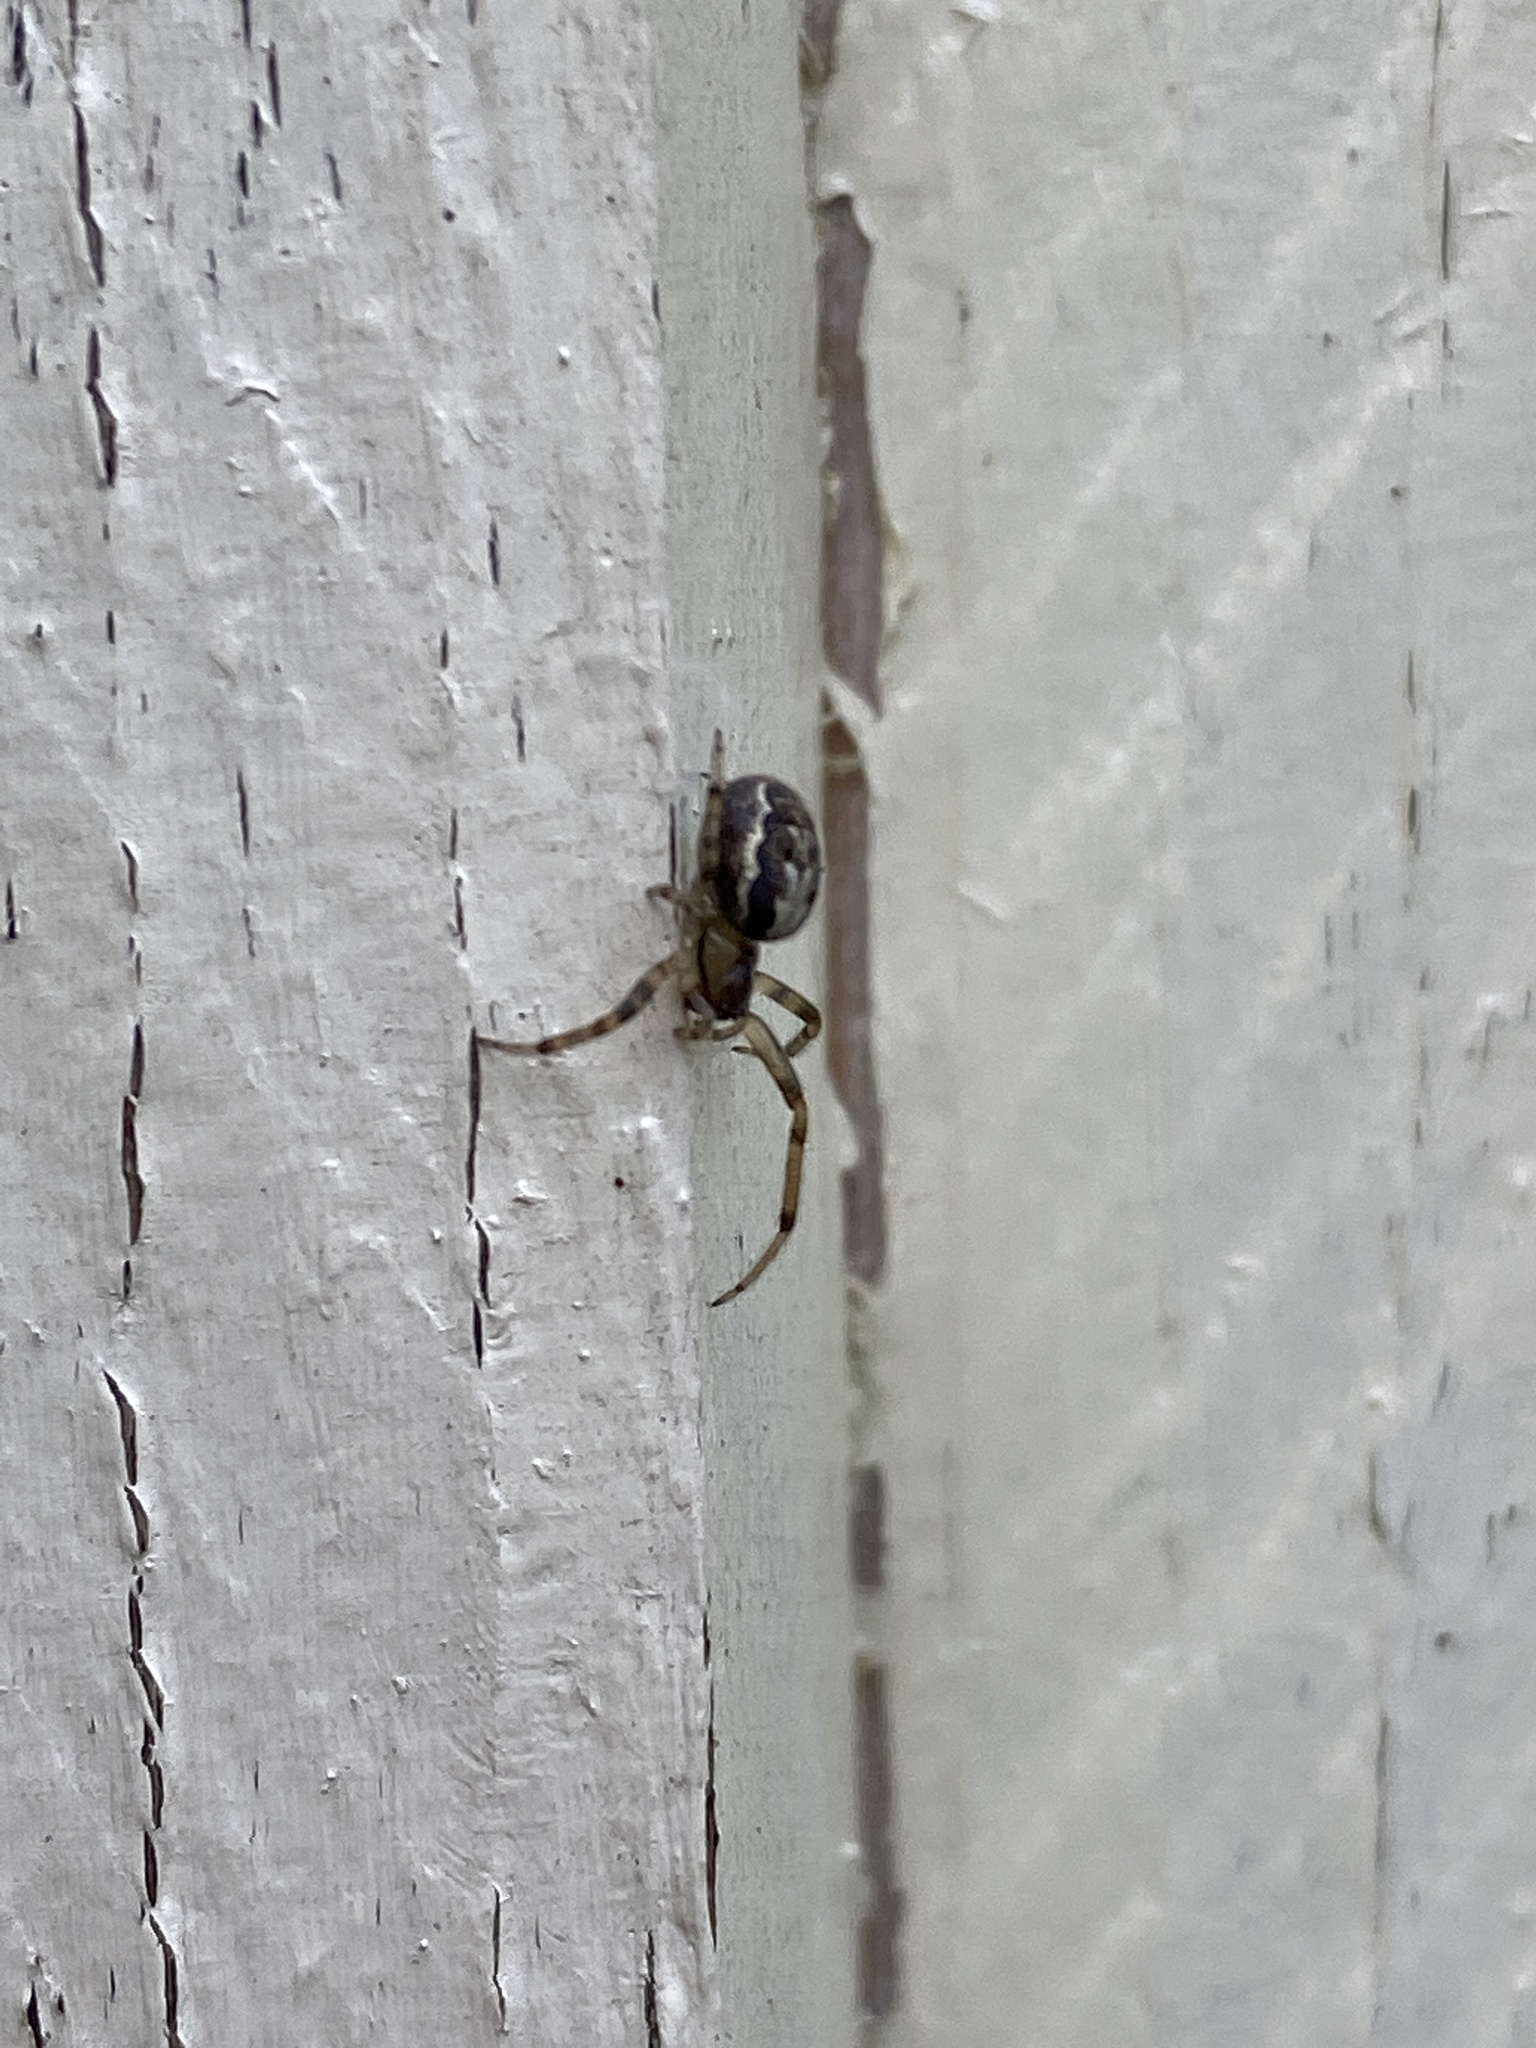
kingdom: Animalia
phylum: Arthropoda
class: Arachnida
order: Araneae
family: Araneidae
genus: Zygiella
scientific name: Zygiella x-notata
